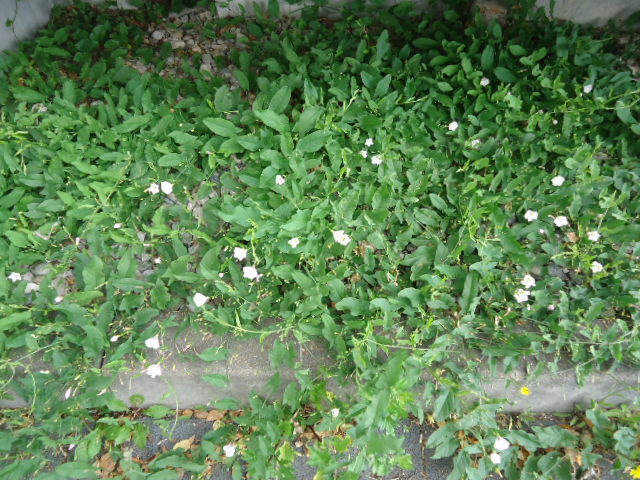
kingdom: Plantae
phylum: Tracheophyta
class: Magnoliopsida
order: Solanales
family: Convolvulaceae
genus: Convolvulus
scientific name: Convolvulus arvensis
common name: Field bindweed
